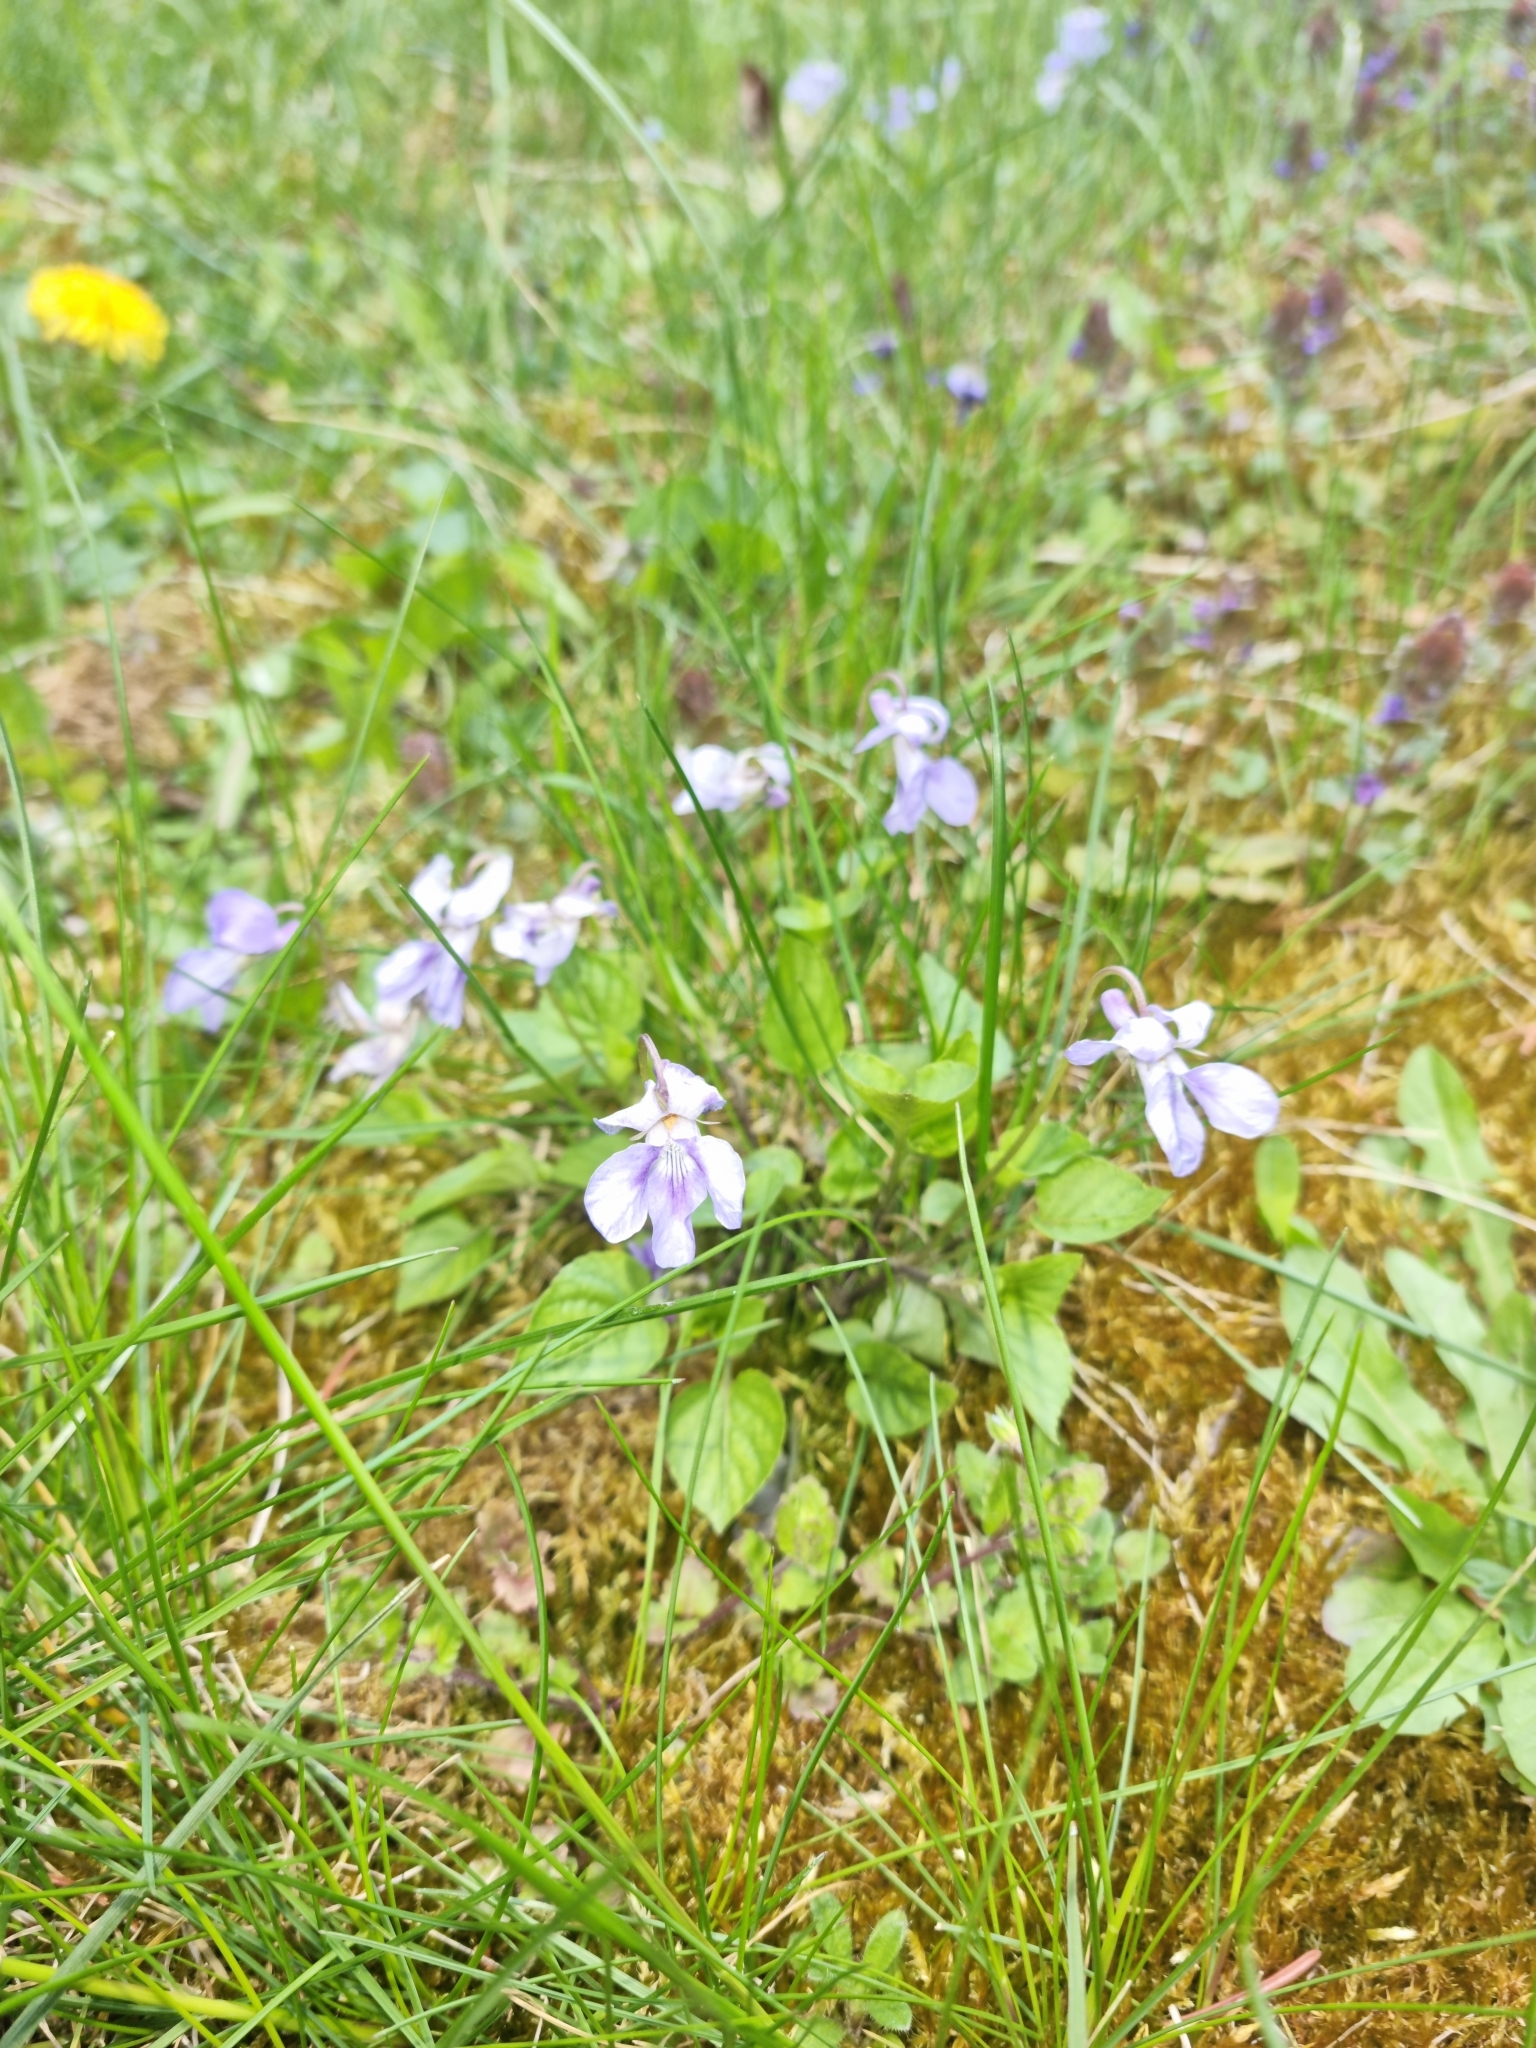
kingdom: Plantae
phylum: Tracheophyta
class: Magnoliopsida
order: Malpighiales
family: Violaceae
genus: Viola
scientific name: Viola reichenbachiana
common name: Early dog-violet
